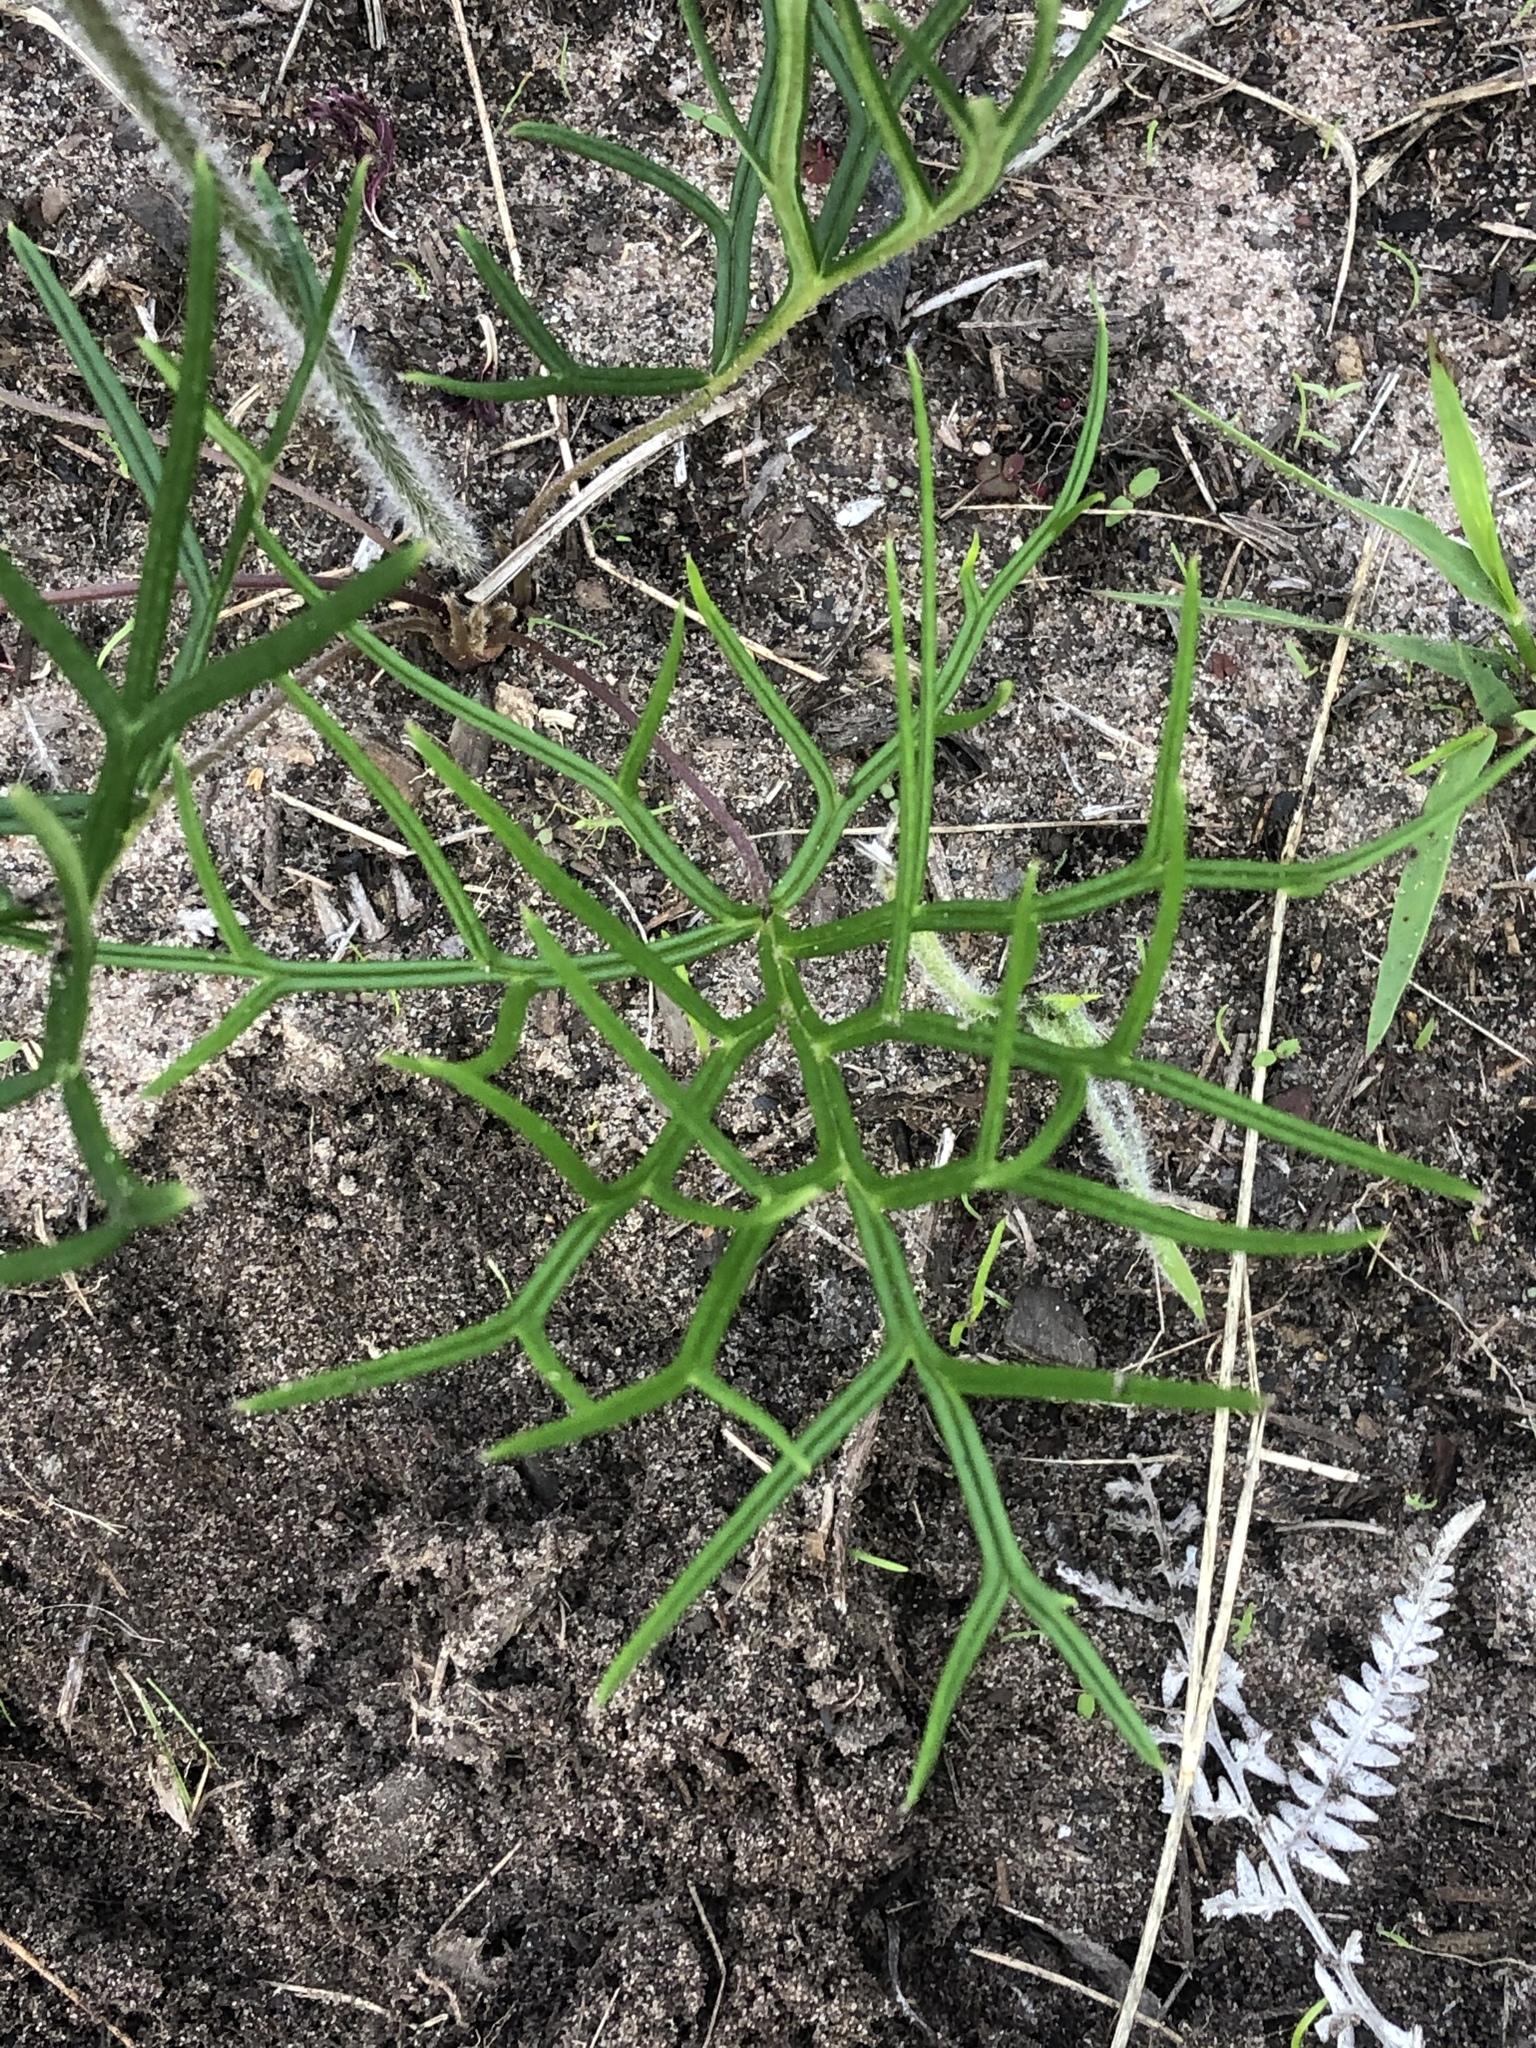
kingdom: Plantae
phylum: Tracheophyta
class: Magnoliopsida
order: Geraniales
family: Geraniaceae
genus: Pelargonium
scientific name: Pelargonium caffrum
